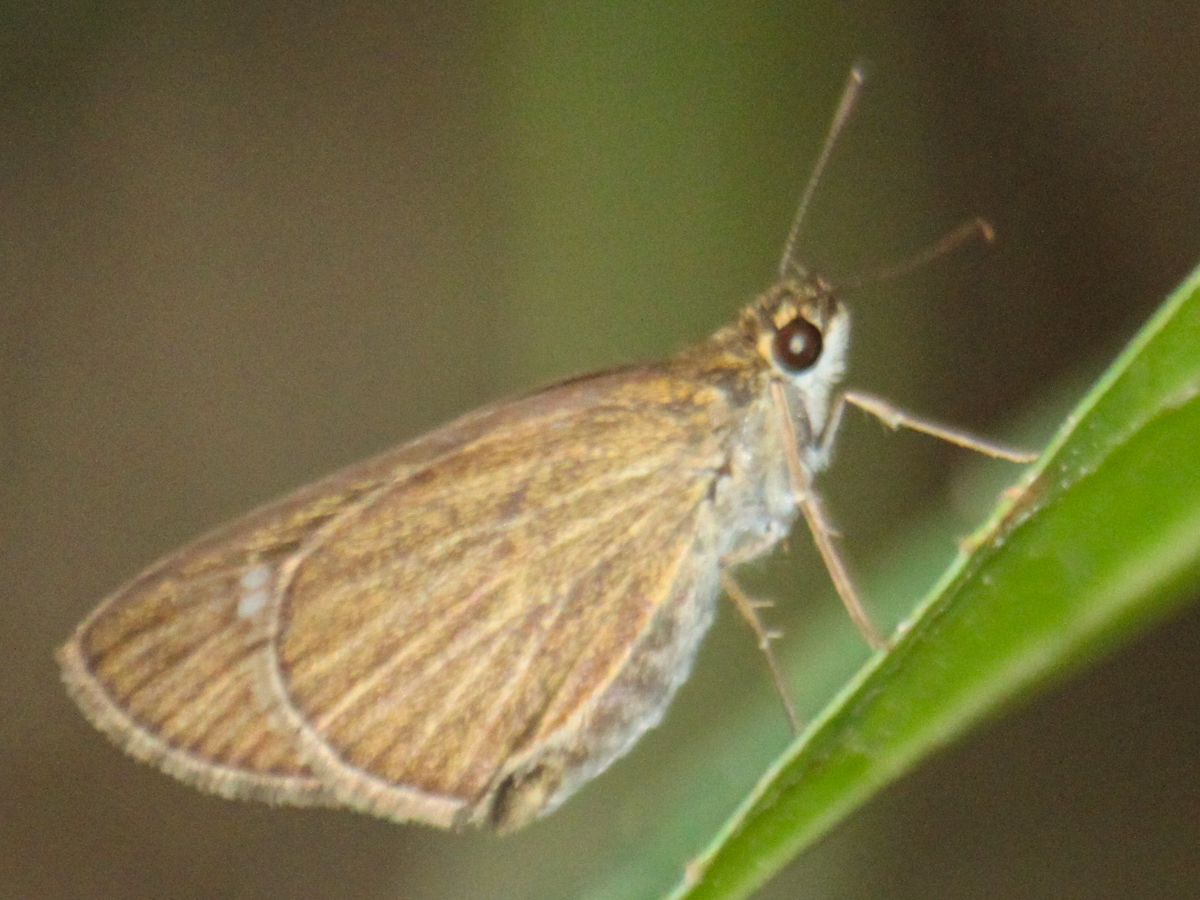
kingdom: Animalia
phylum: Arthropoda
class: Insecta
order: Lepidoptera
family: Hesperiidae
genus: Suada
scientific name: Suada swerga
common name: Grass bob
